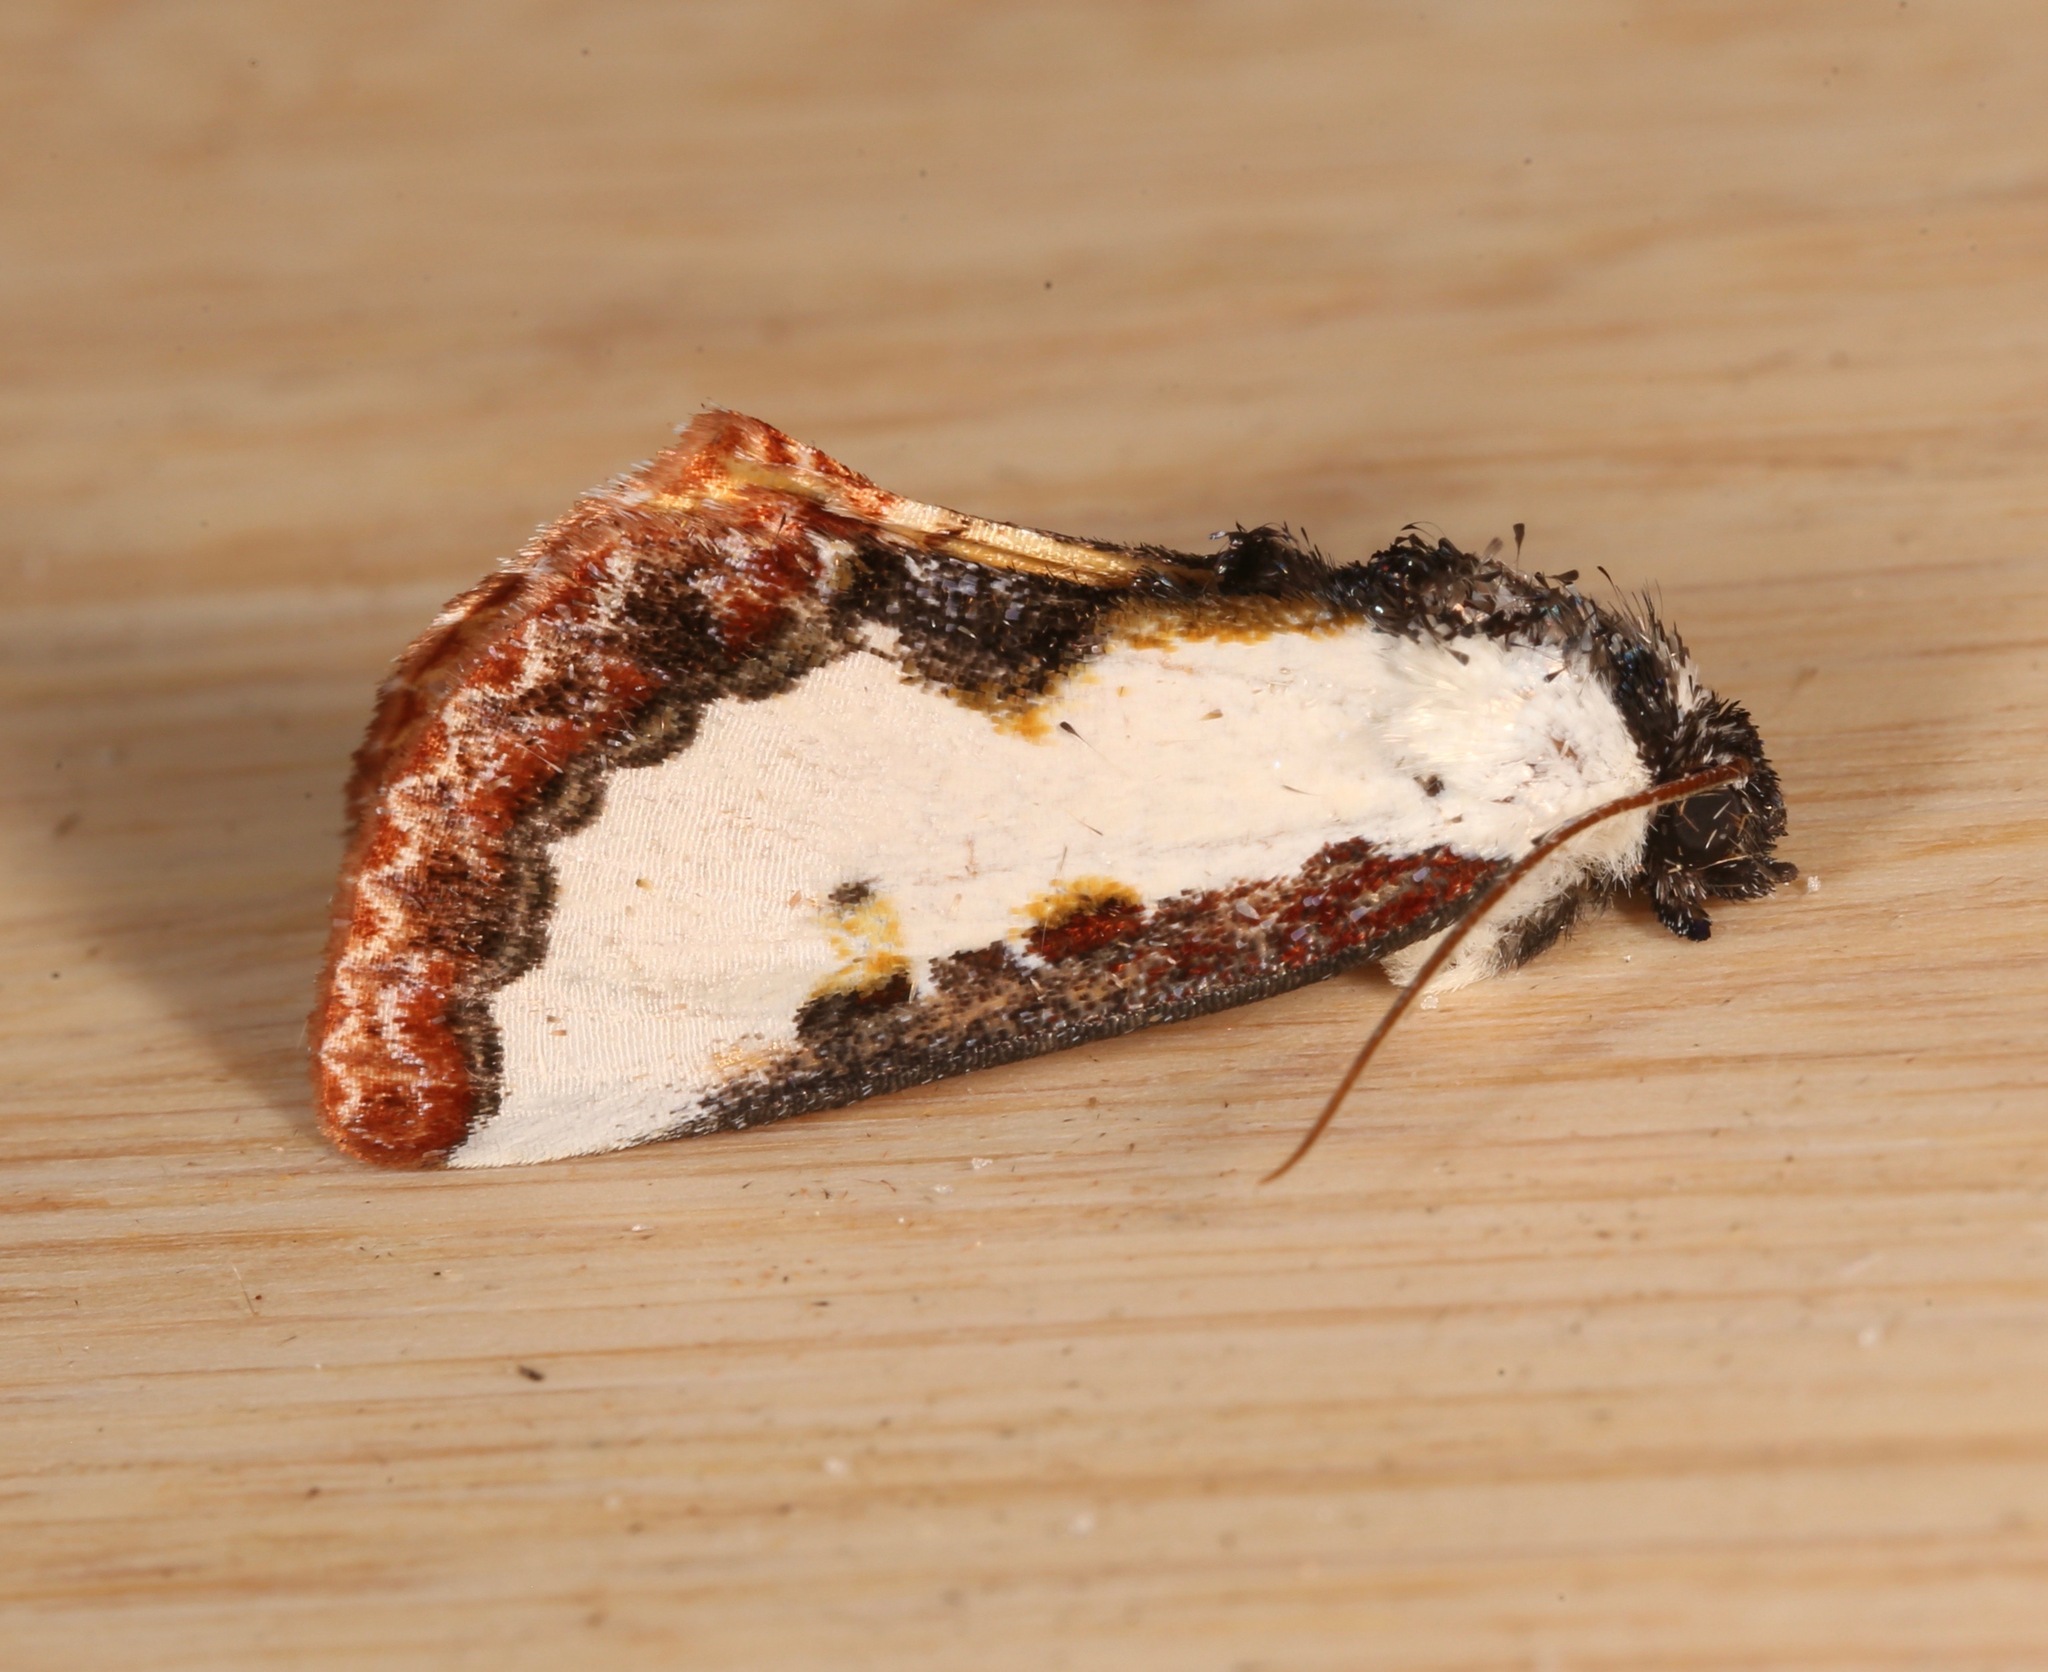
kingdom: Animalia
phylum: Arthropoda
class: Insecta
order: Lepidoptera
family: Noctuidae
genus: Eudryas
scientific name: Eudryas unio
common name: Pearly wood-nymph
